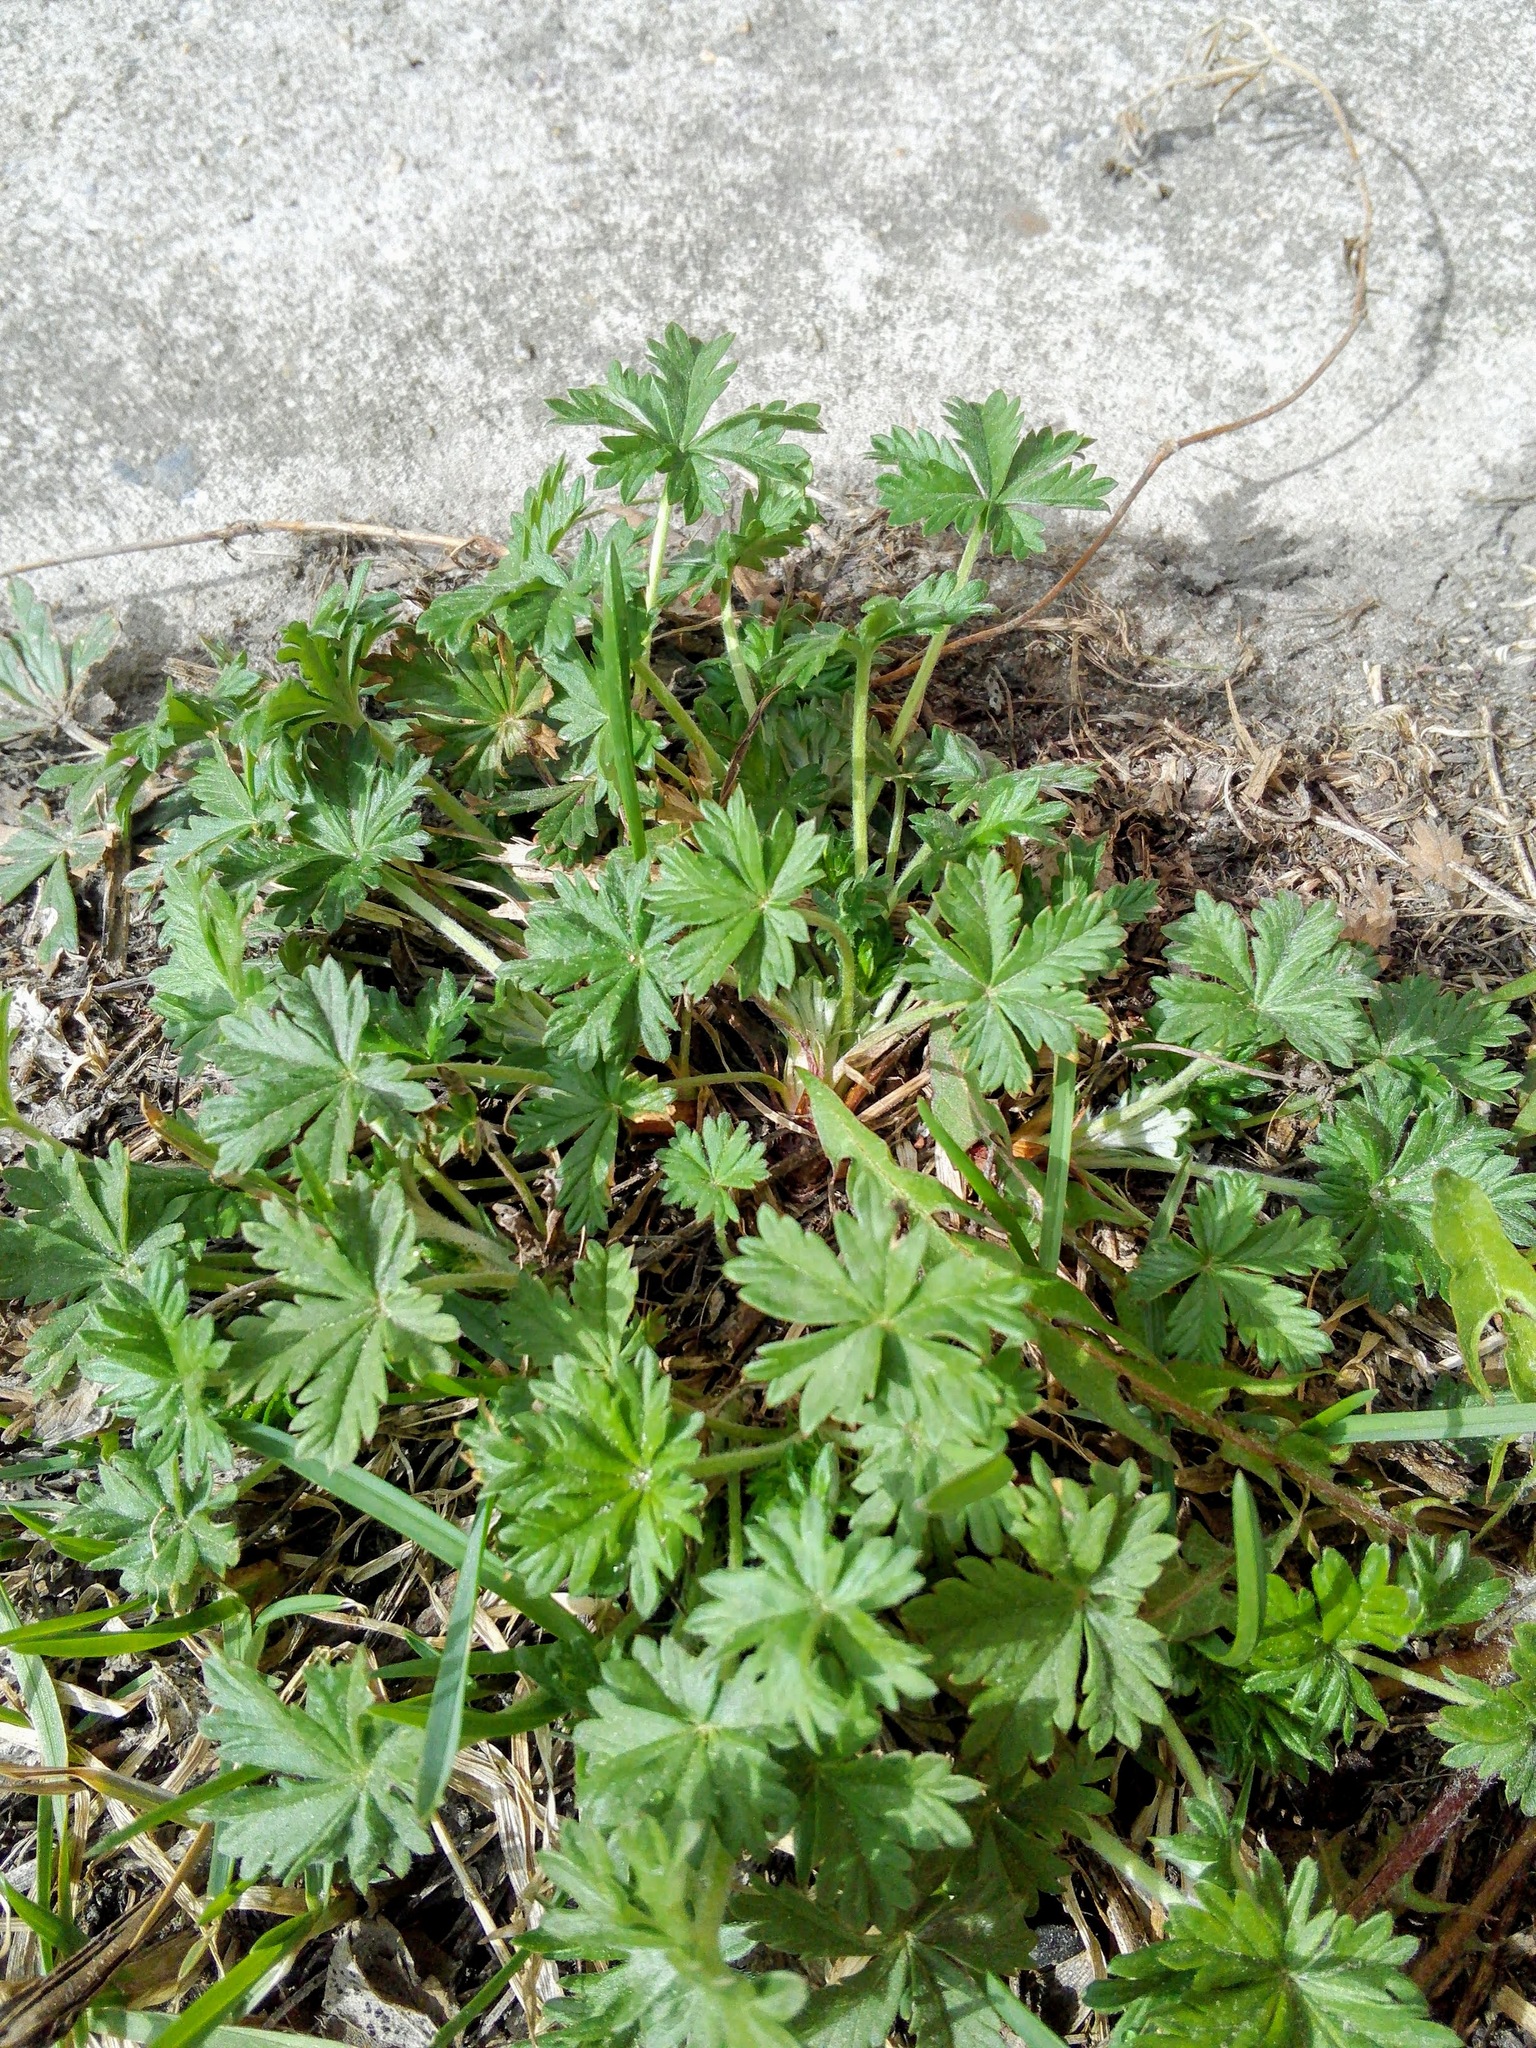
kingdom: Plantae
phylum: Tracheophyta
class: Magnoliopsida
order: Rosales
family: Rosaceae
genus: Potentilla
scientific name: Potentilla argentea
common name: Hoary cinquefoil
